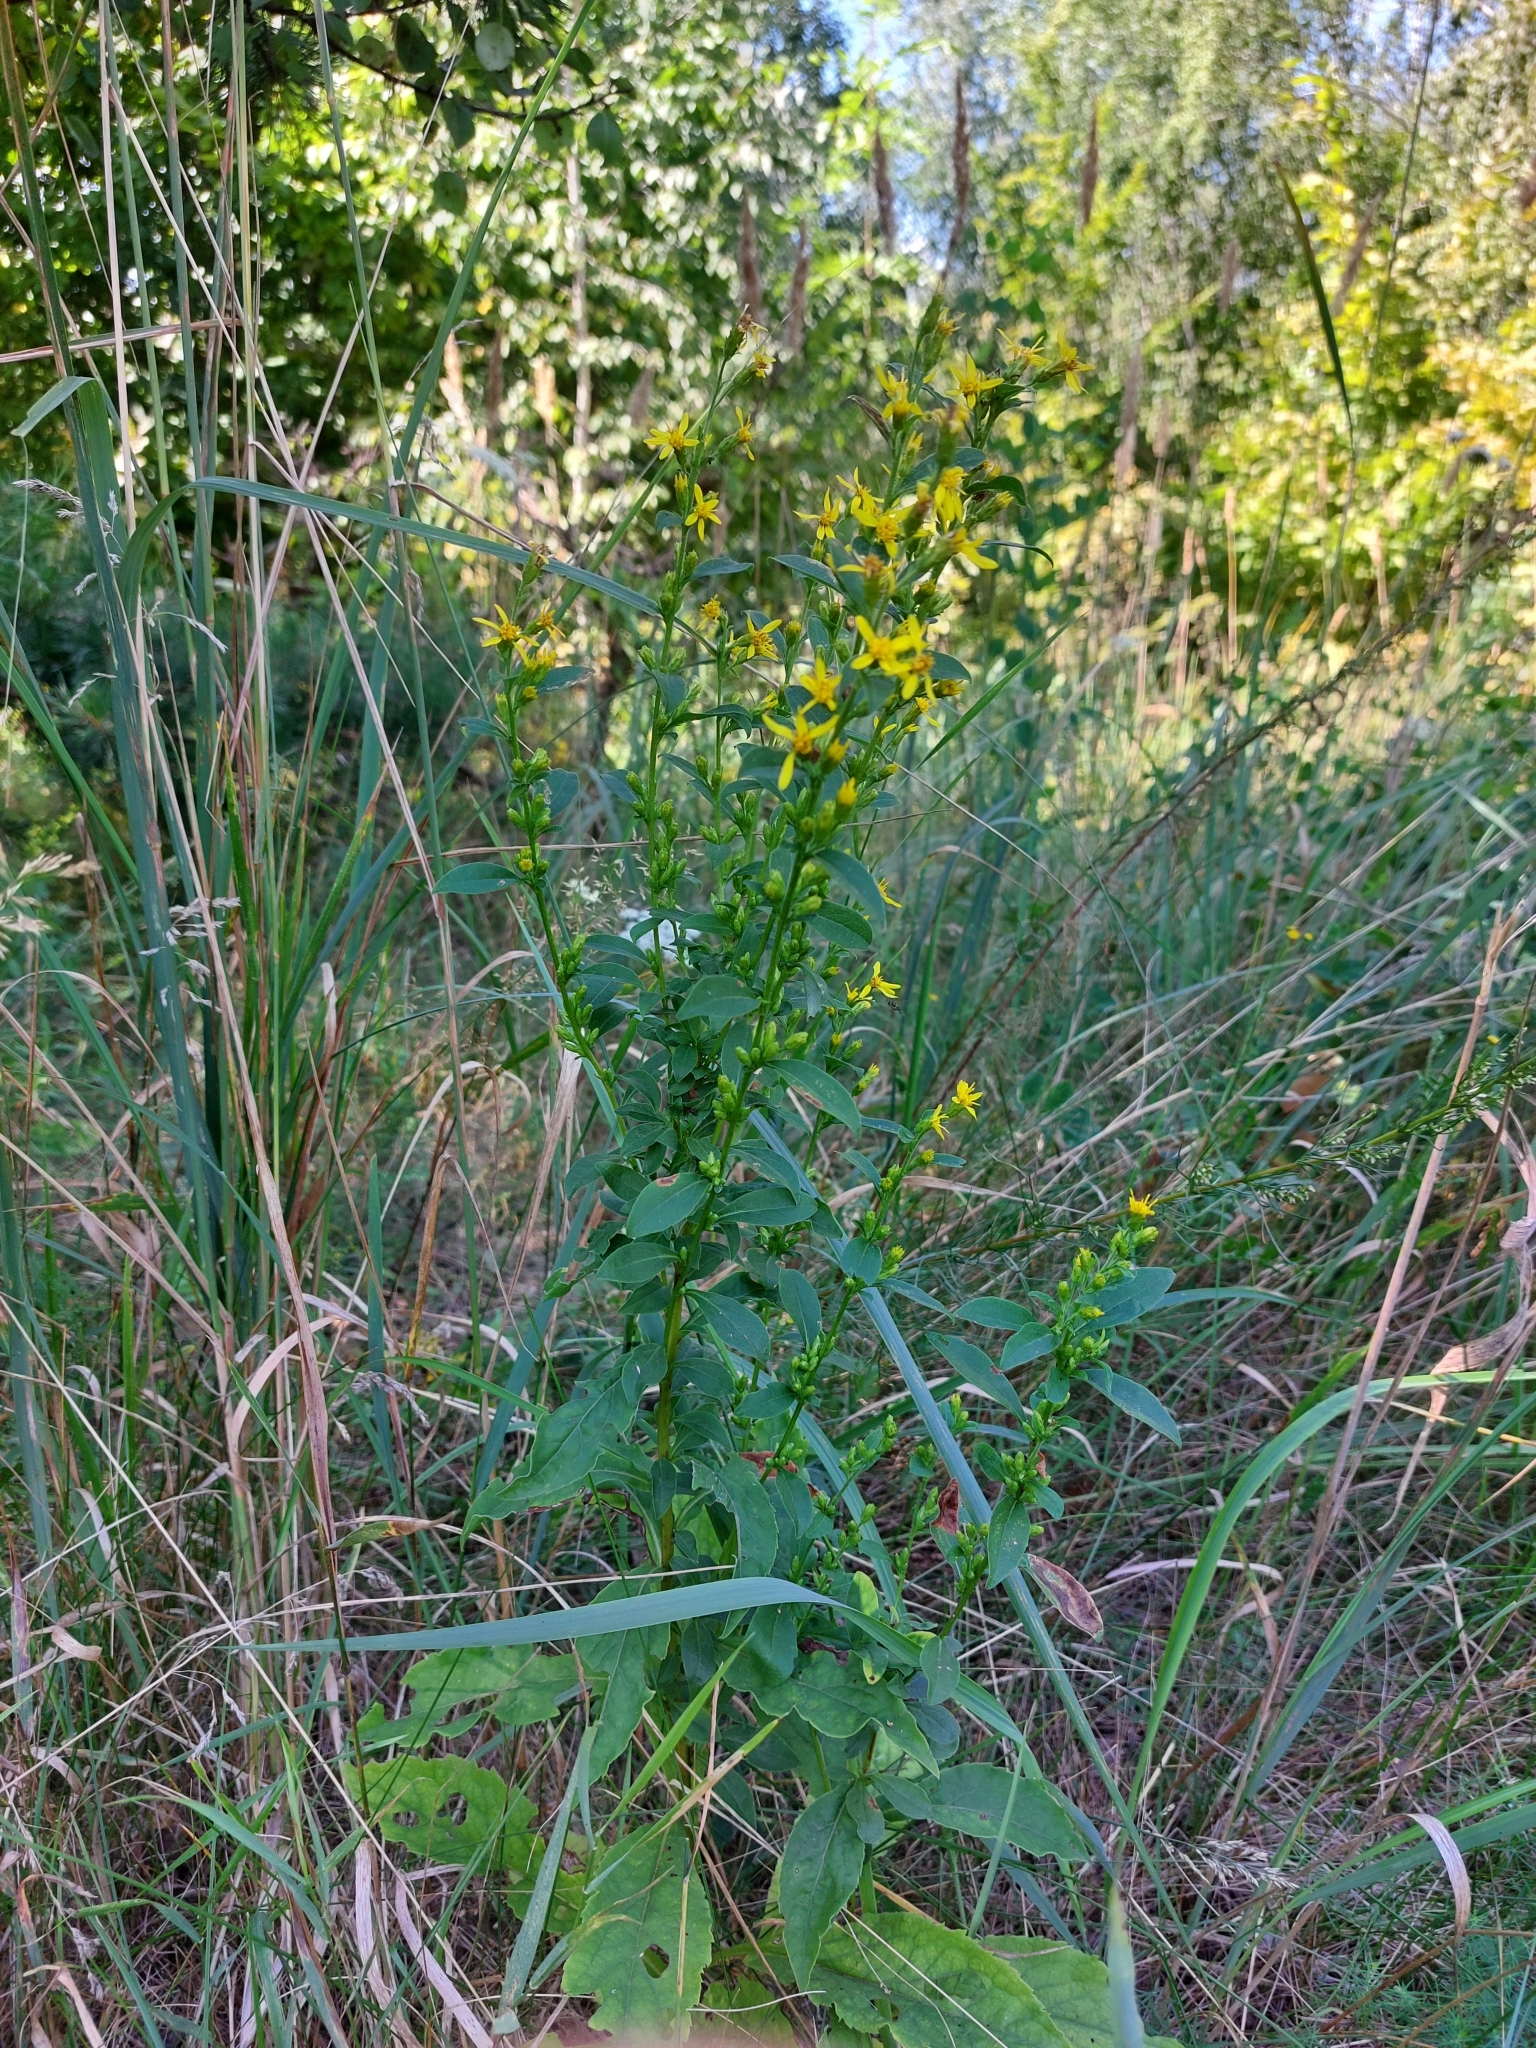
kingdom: Plantae
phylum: Tracheophyta
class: Magnoliopsida
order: Asterales
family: Asteraceae
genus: Solidago
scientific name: Solidago virgaurea
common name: Goldenrod
